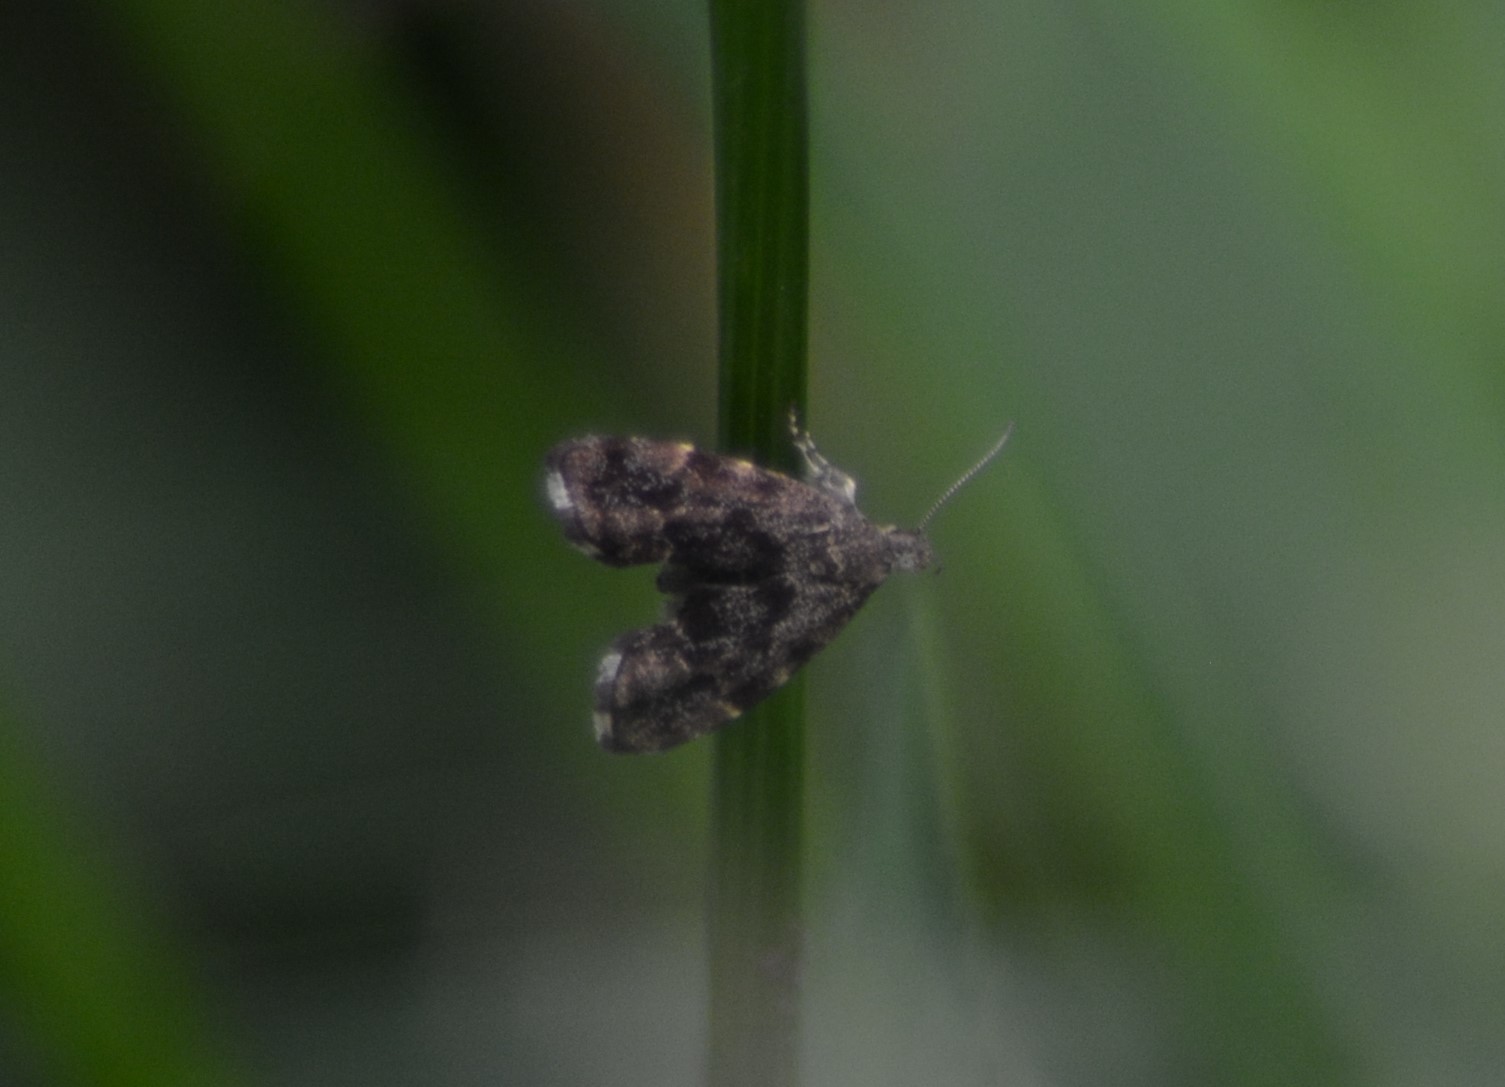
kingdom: Animalia
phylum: Arthropoda
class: Insecta
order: Lepidoptera
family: Choreutidae
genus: Anthophila
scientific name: Anthophila fabriciana
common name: Nettle-tap
